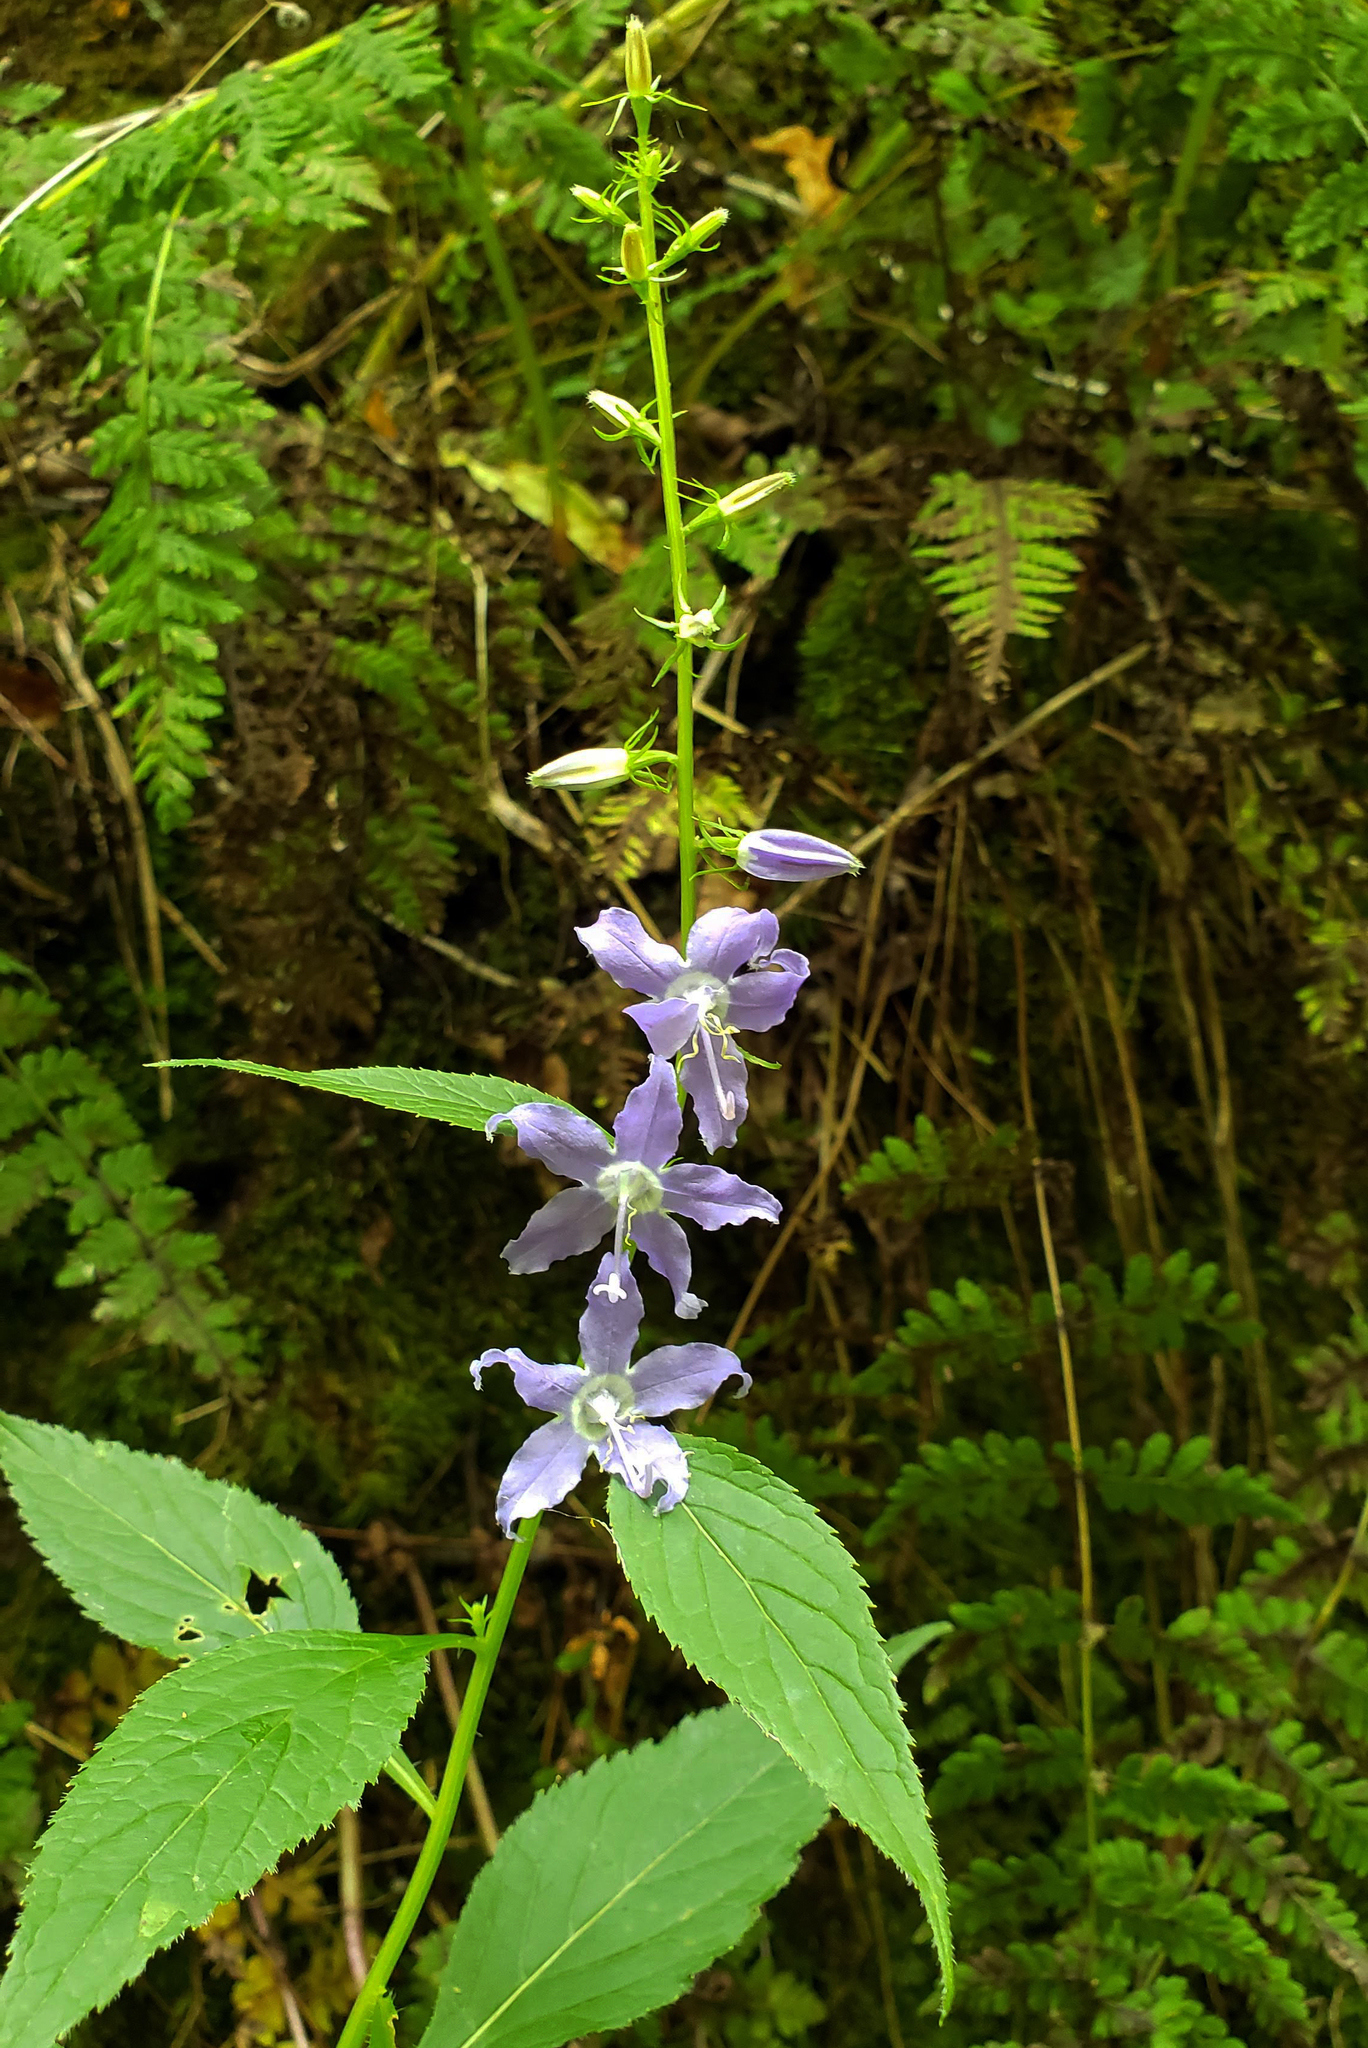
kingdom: Plantae
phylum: Tracheophyta
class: Magnoliopsida
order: Asterales
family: Campanulaceae
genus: Campanulastrum
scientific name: Campanulastrum americanum
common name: American bellflower
